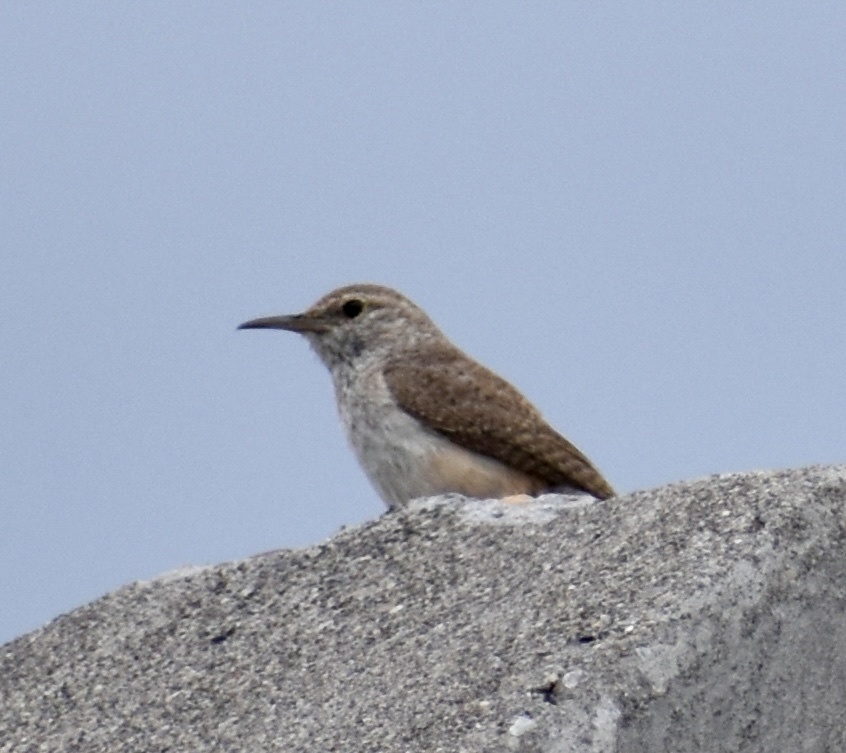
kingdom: Animalia
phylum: Chordata
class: Aves
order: Passeriformes
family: Troglodytidae
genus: Salpinctes
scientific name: Salpinctes obsoletus
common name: Rock wren
